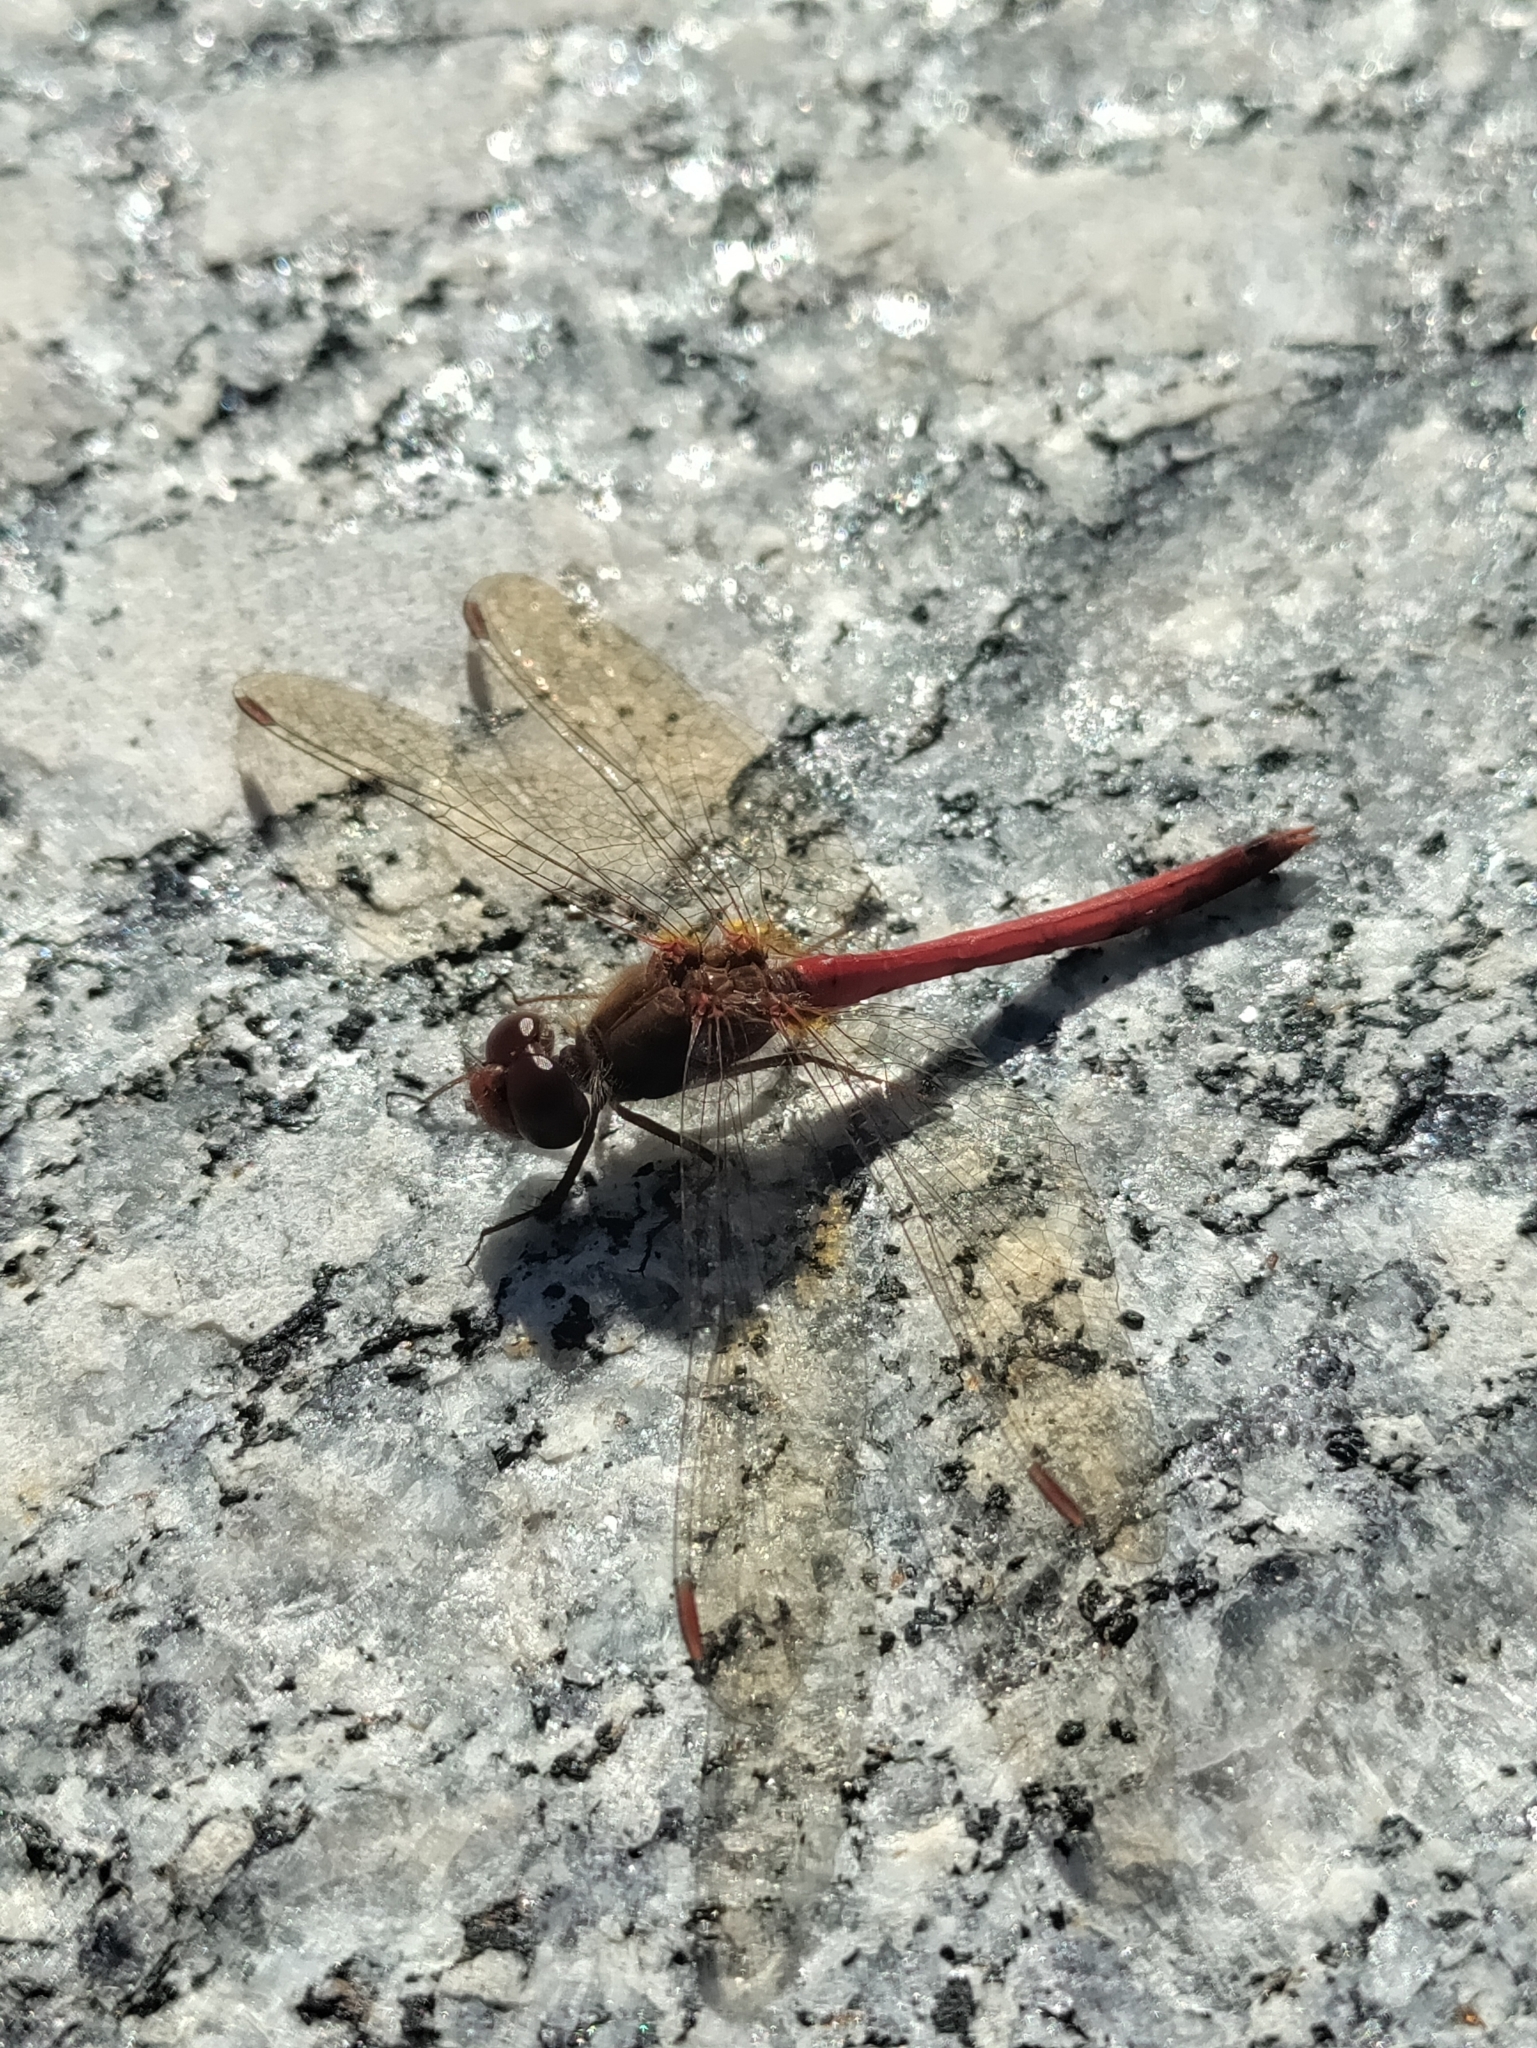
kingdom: Animalia
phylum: Arthropoda
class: Insecta
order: Odonata
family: Libellulidae
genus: Sympetrum
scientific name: Sympetrum vicinum
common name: Autumn meadowhawk
